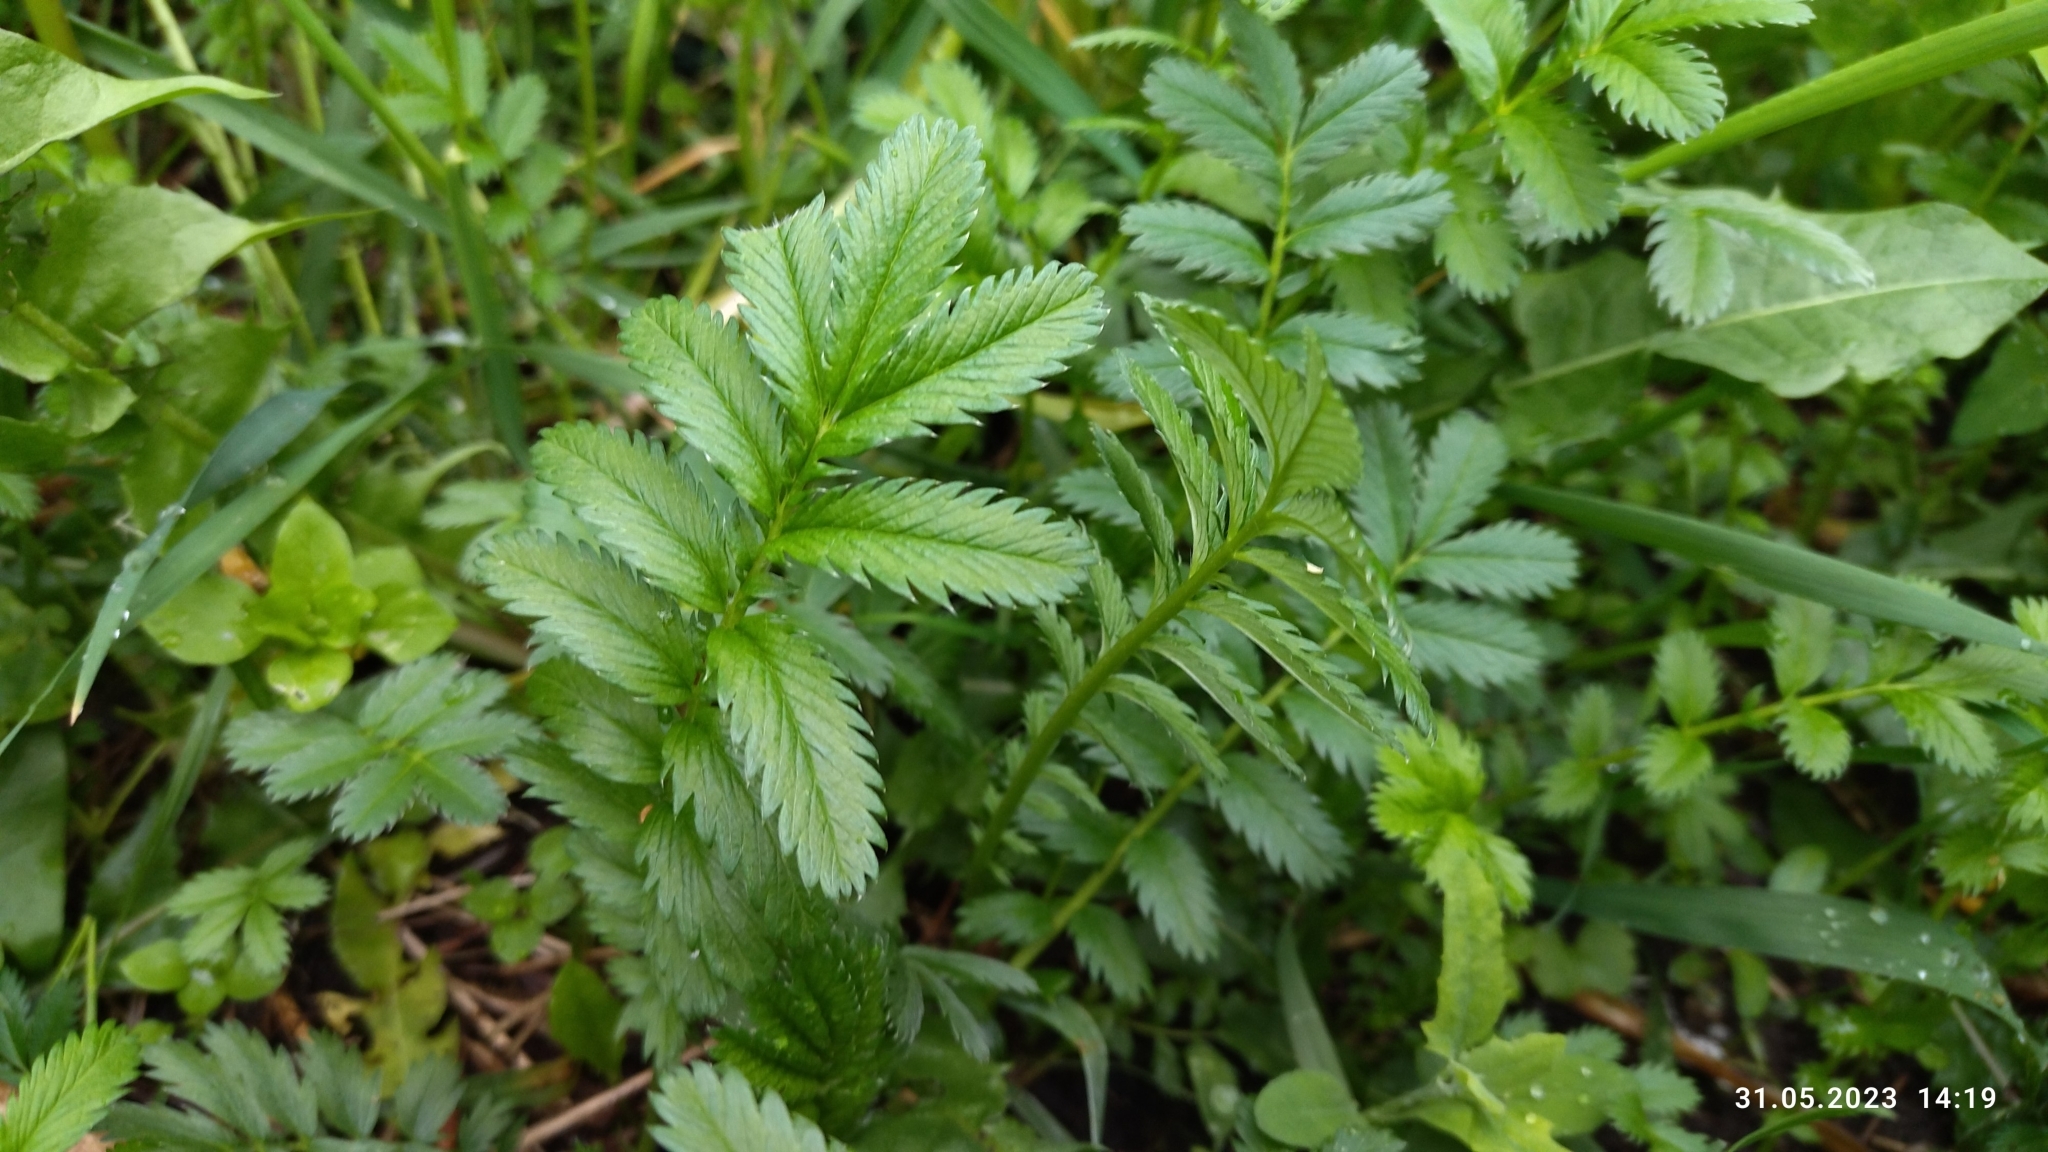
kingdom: Plantae
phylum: Tracheophyta
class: Magnoliopsida
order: Rosales
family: Rosaceae
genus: Argentina
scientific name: Argentina anserina
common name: Common silverweed
